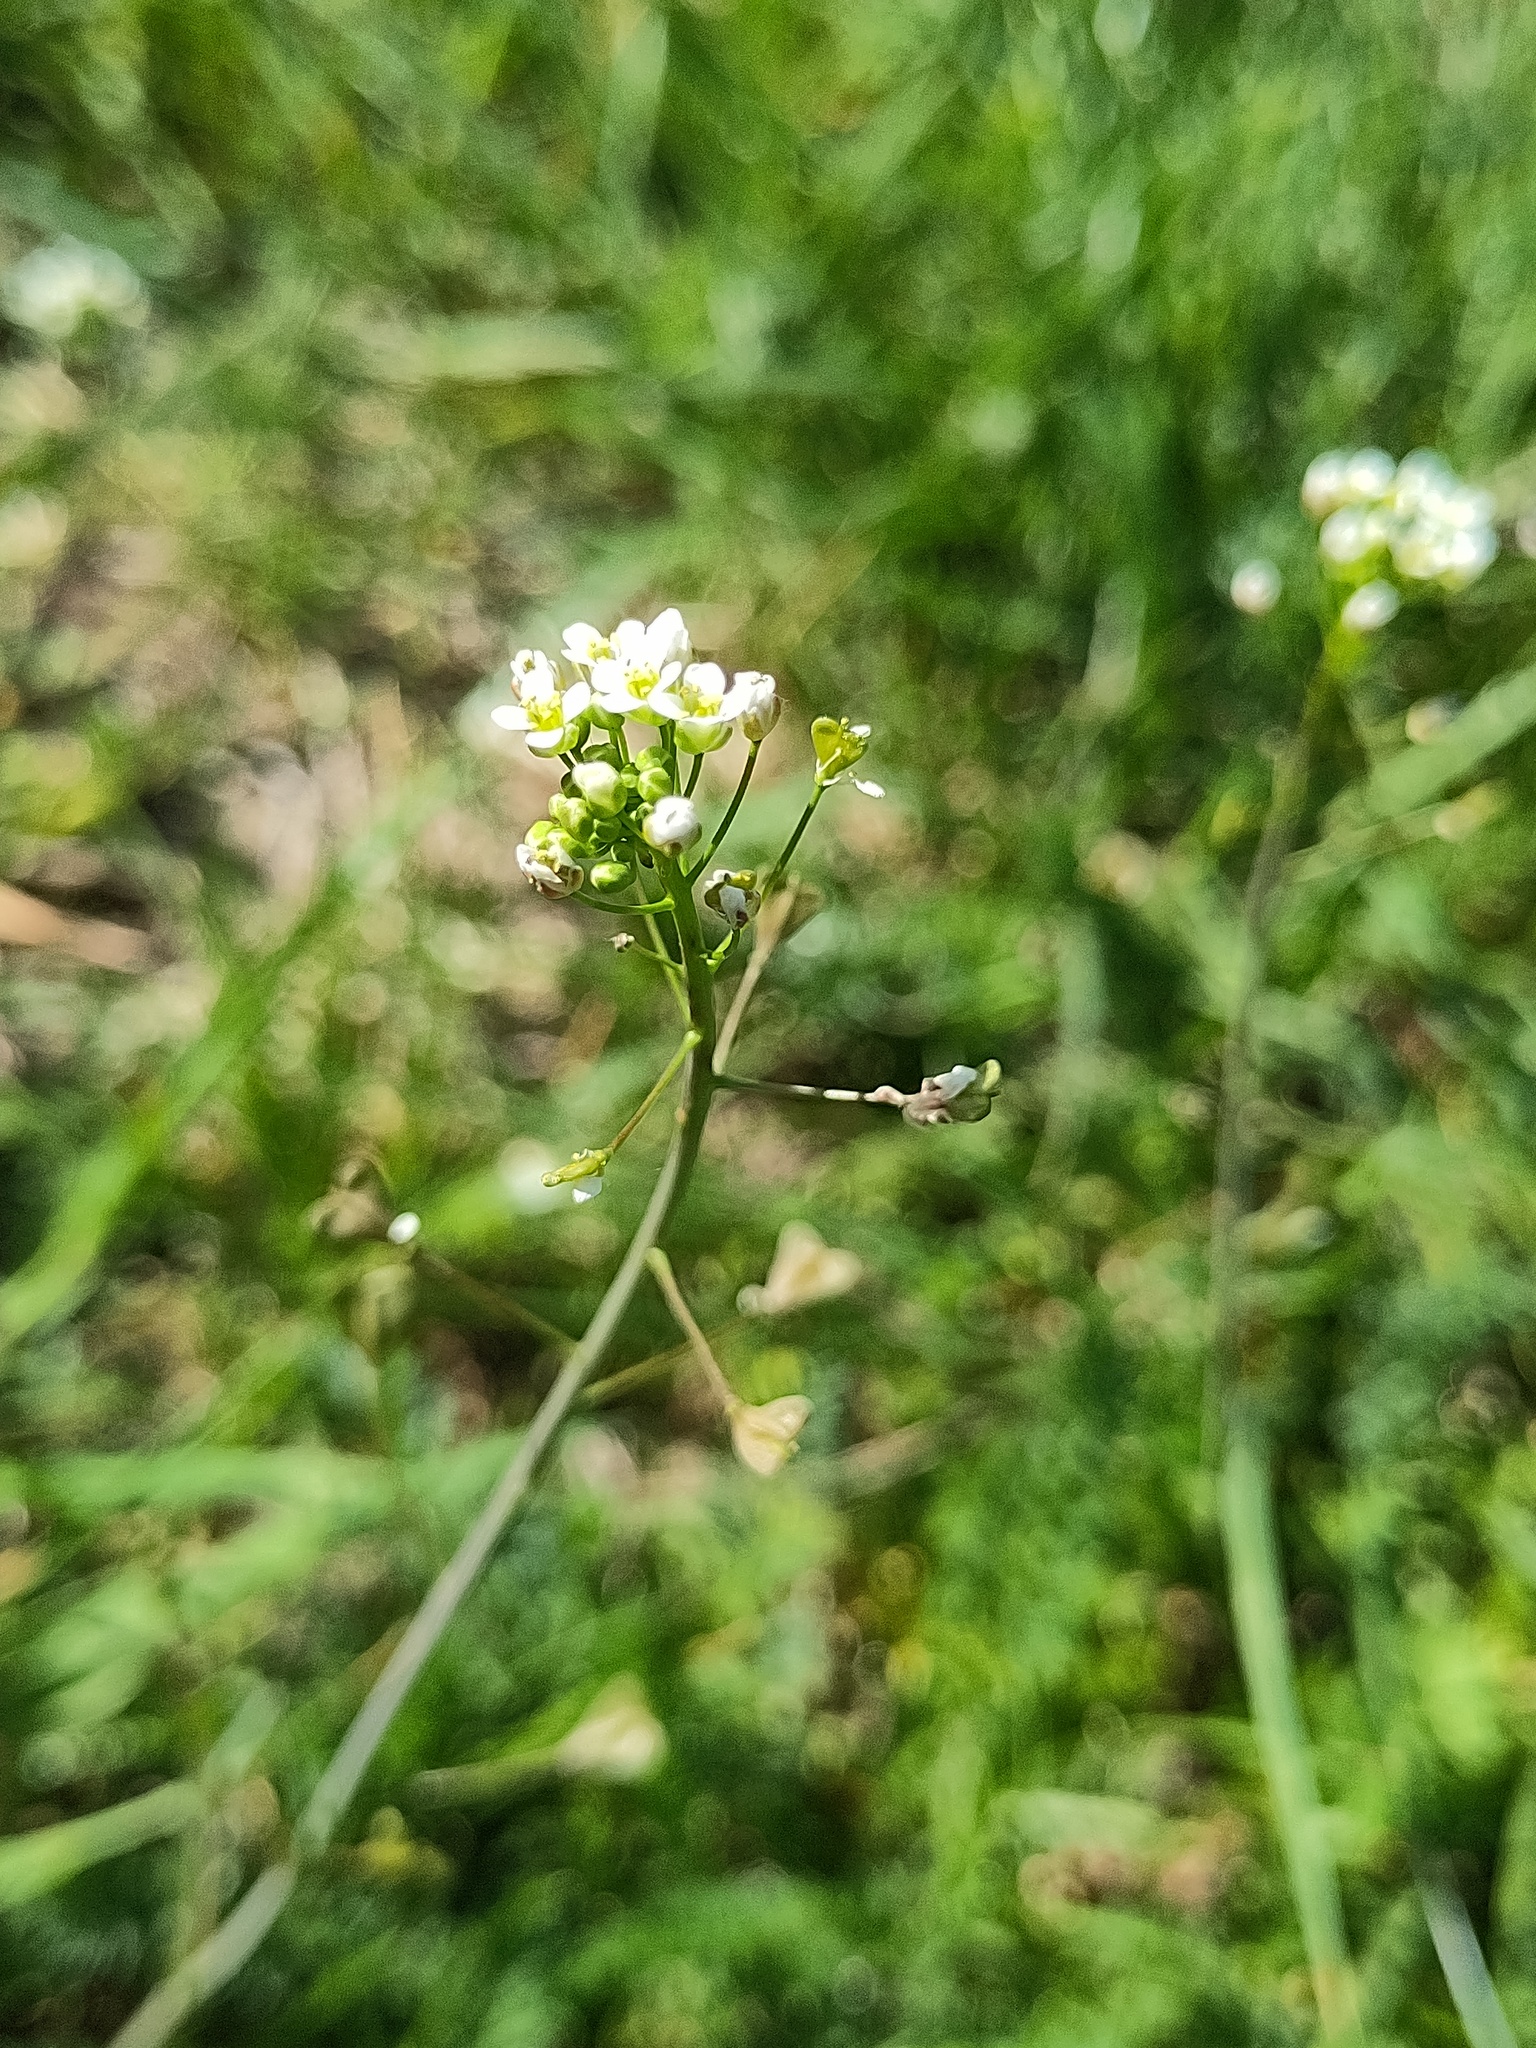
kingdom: Plantae
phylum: Tracheophyta
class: Magnoliopsida
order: Brassicales
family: Brassicaceae
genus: Capsella
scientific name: Capsella bursa-pastoris
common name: Shepherd's purse
